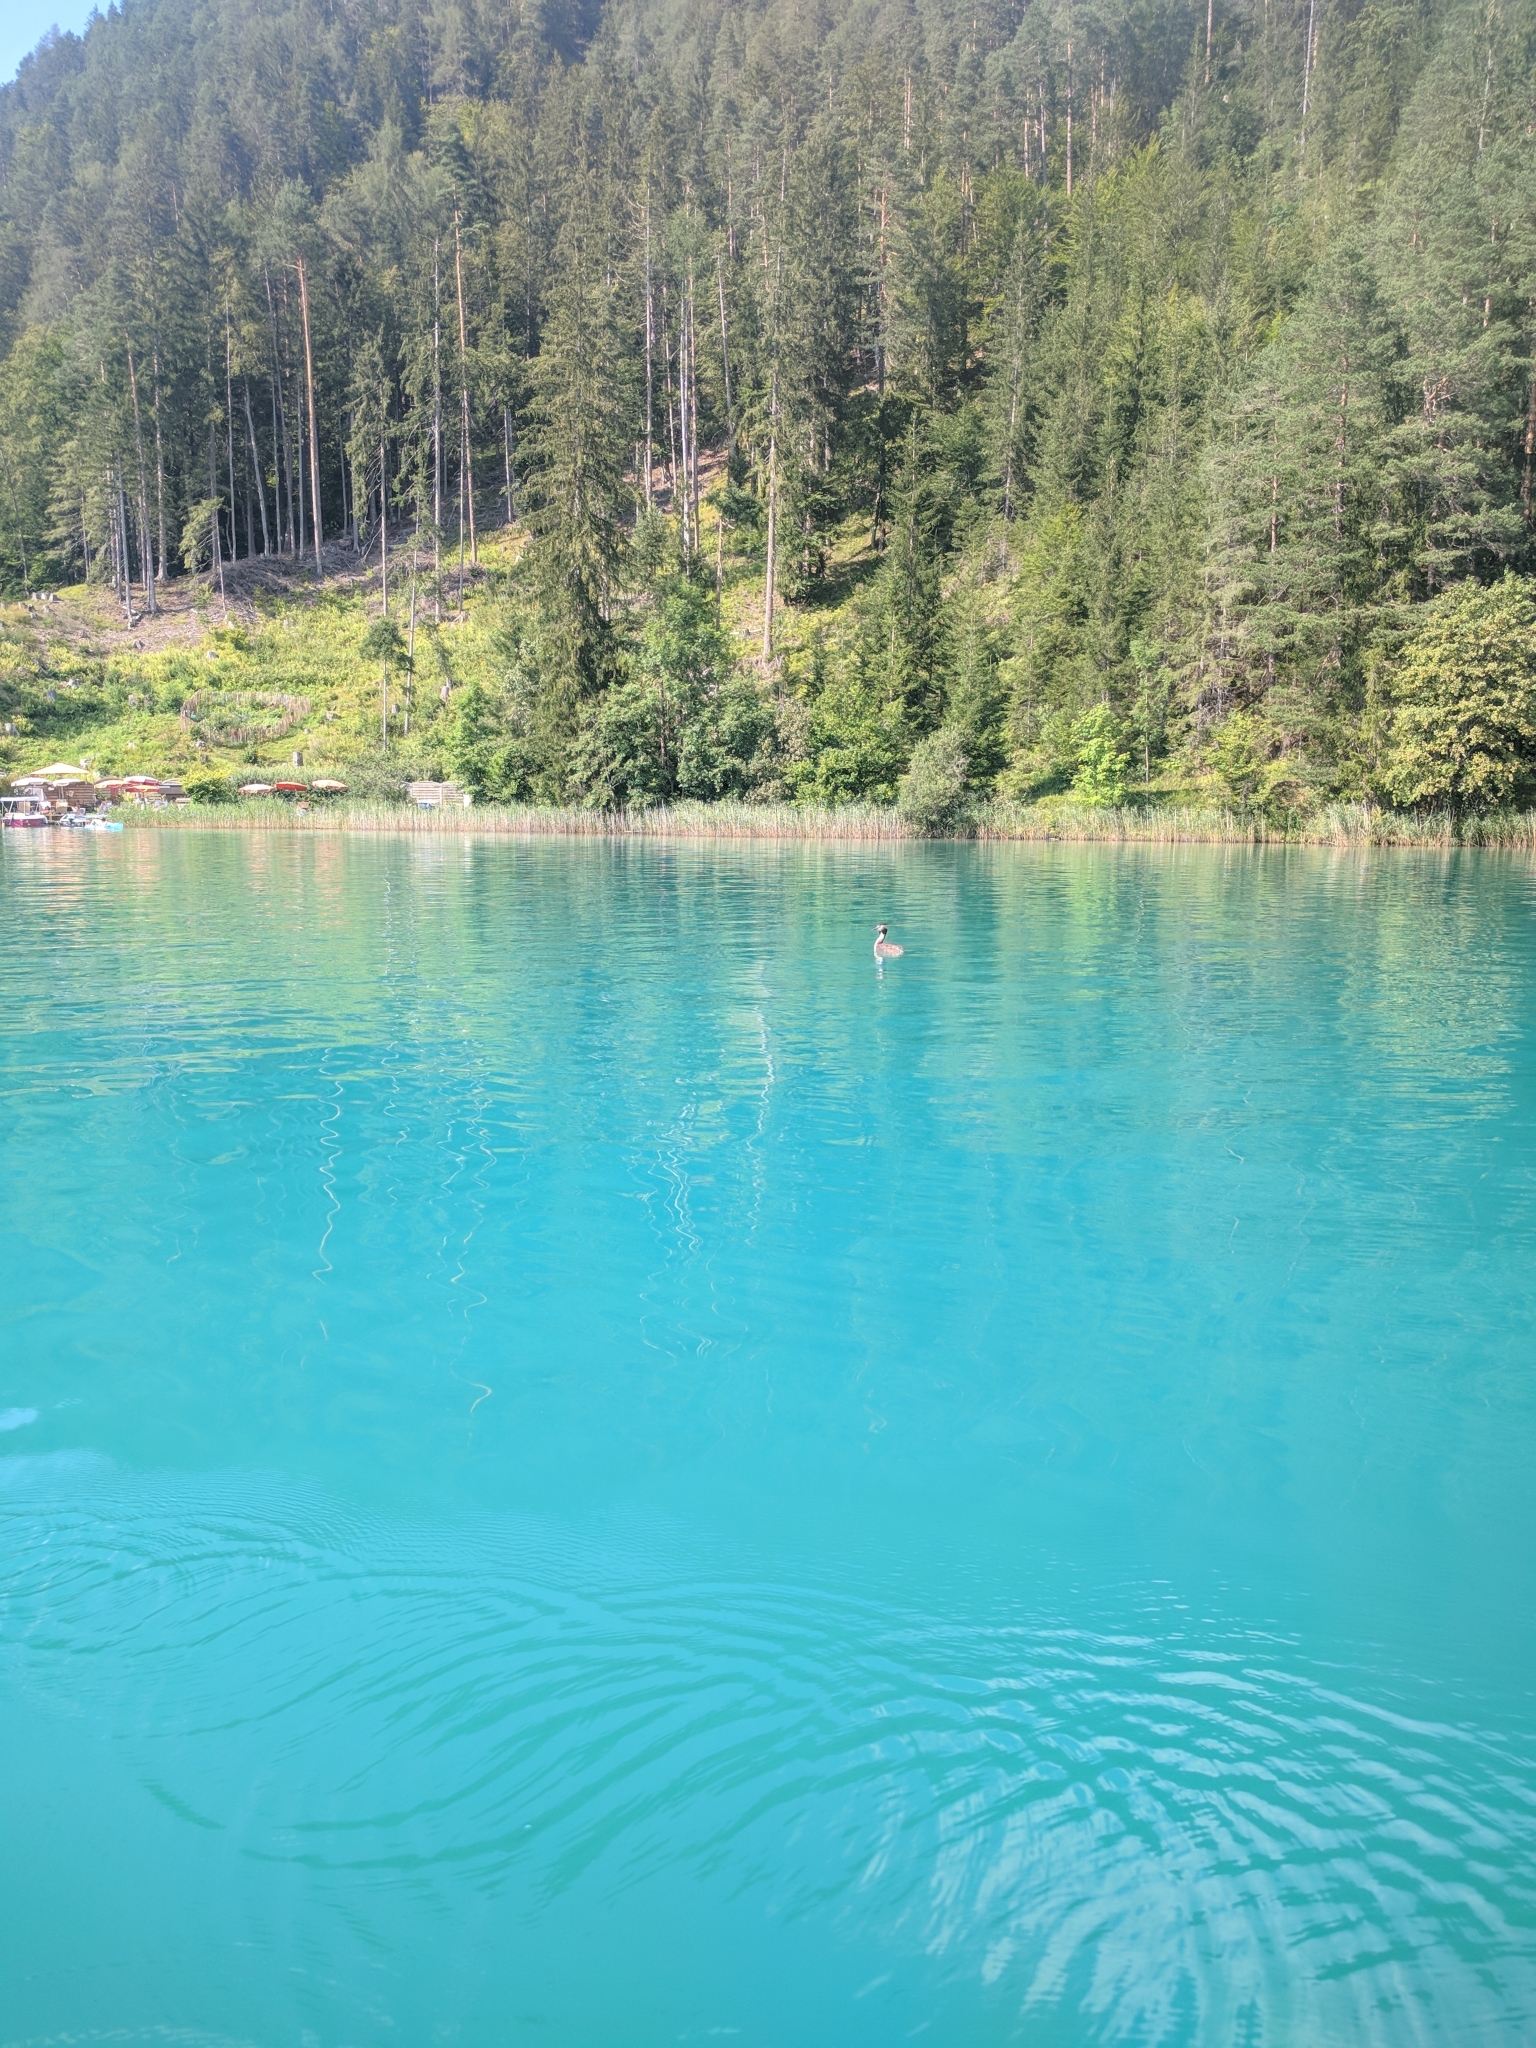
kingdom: Animalia
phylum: Chordata
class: Aves
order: Podicipediformes
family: Podicipedidae
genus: Podiceps
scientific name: Podiceps cristatus
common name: Great crested grebe
